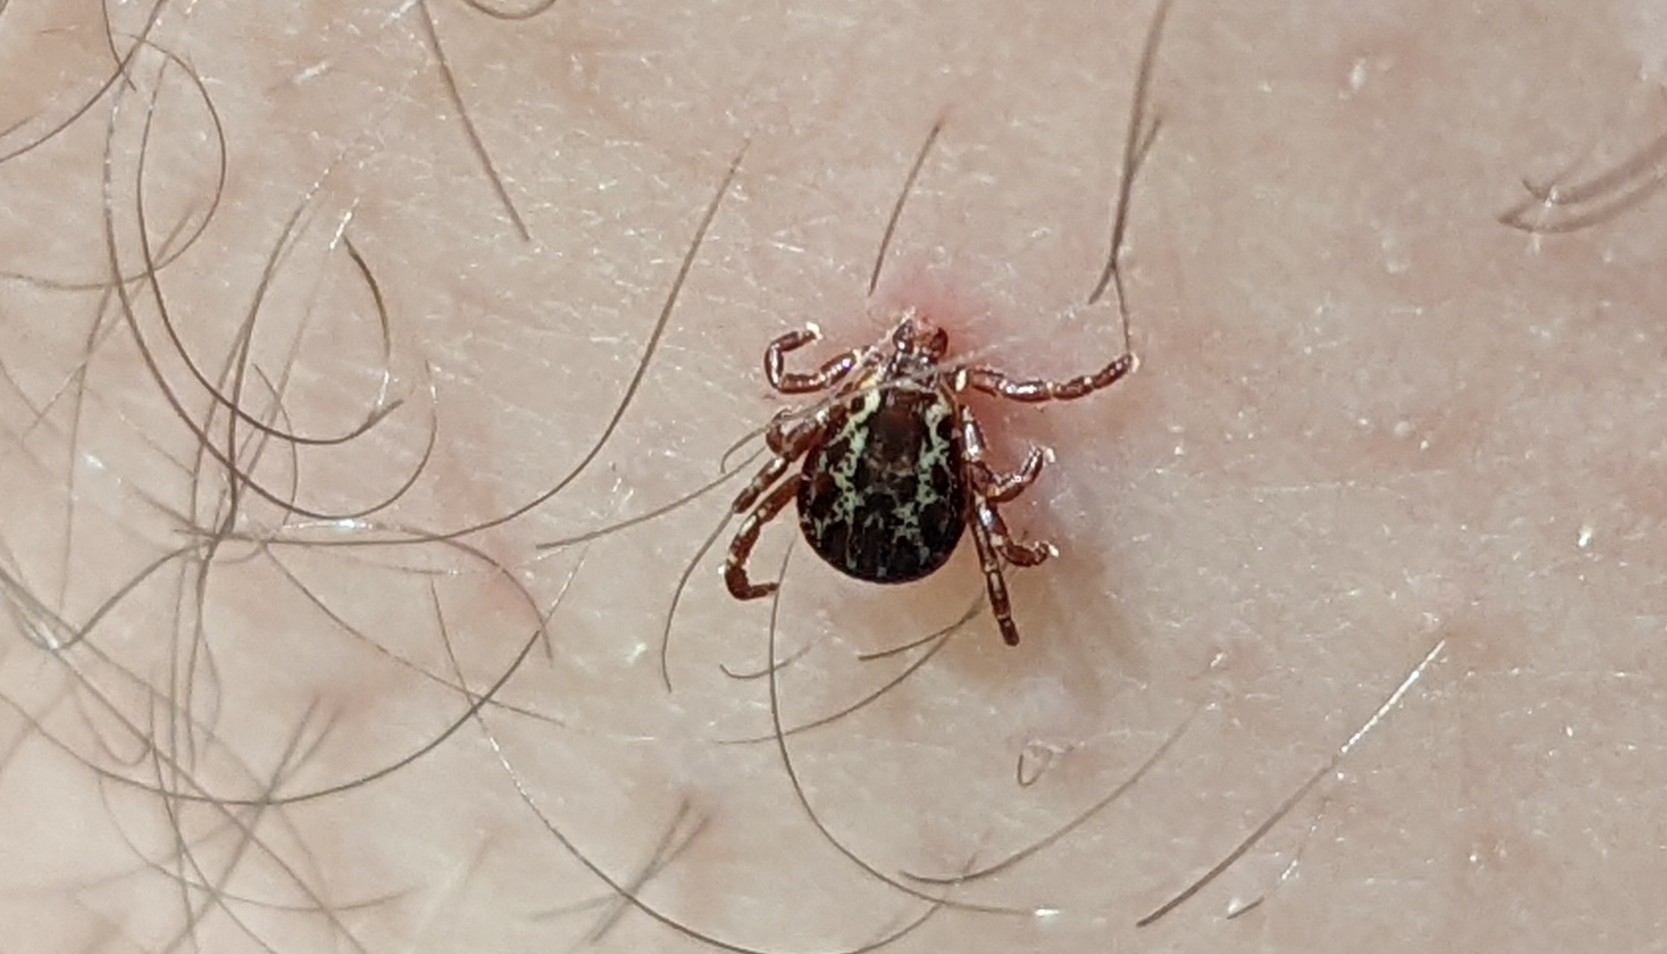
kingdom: Animalia
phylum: Arthropoda
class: Arachnida
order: Ixodida
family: Ixodidae
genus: Dermacentor
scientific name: Dermacentor variabilis
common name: American dog tick
